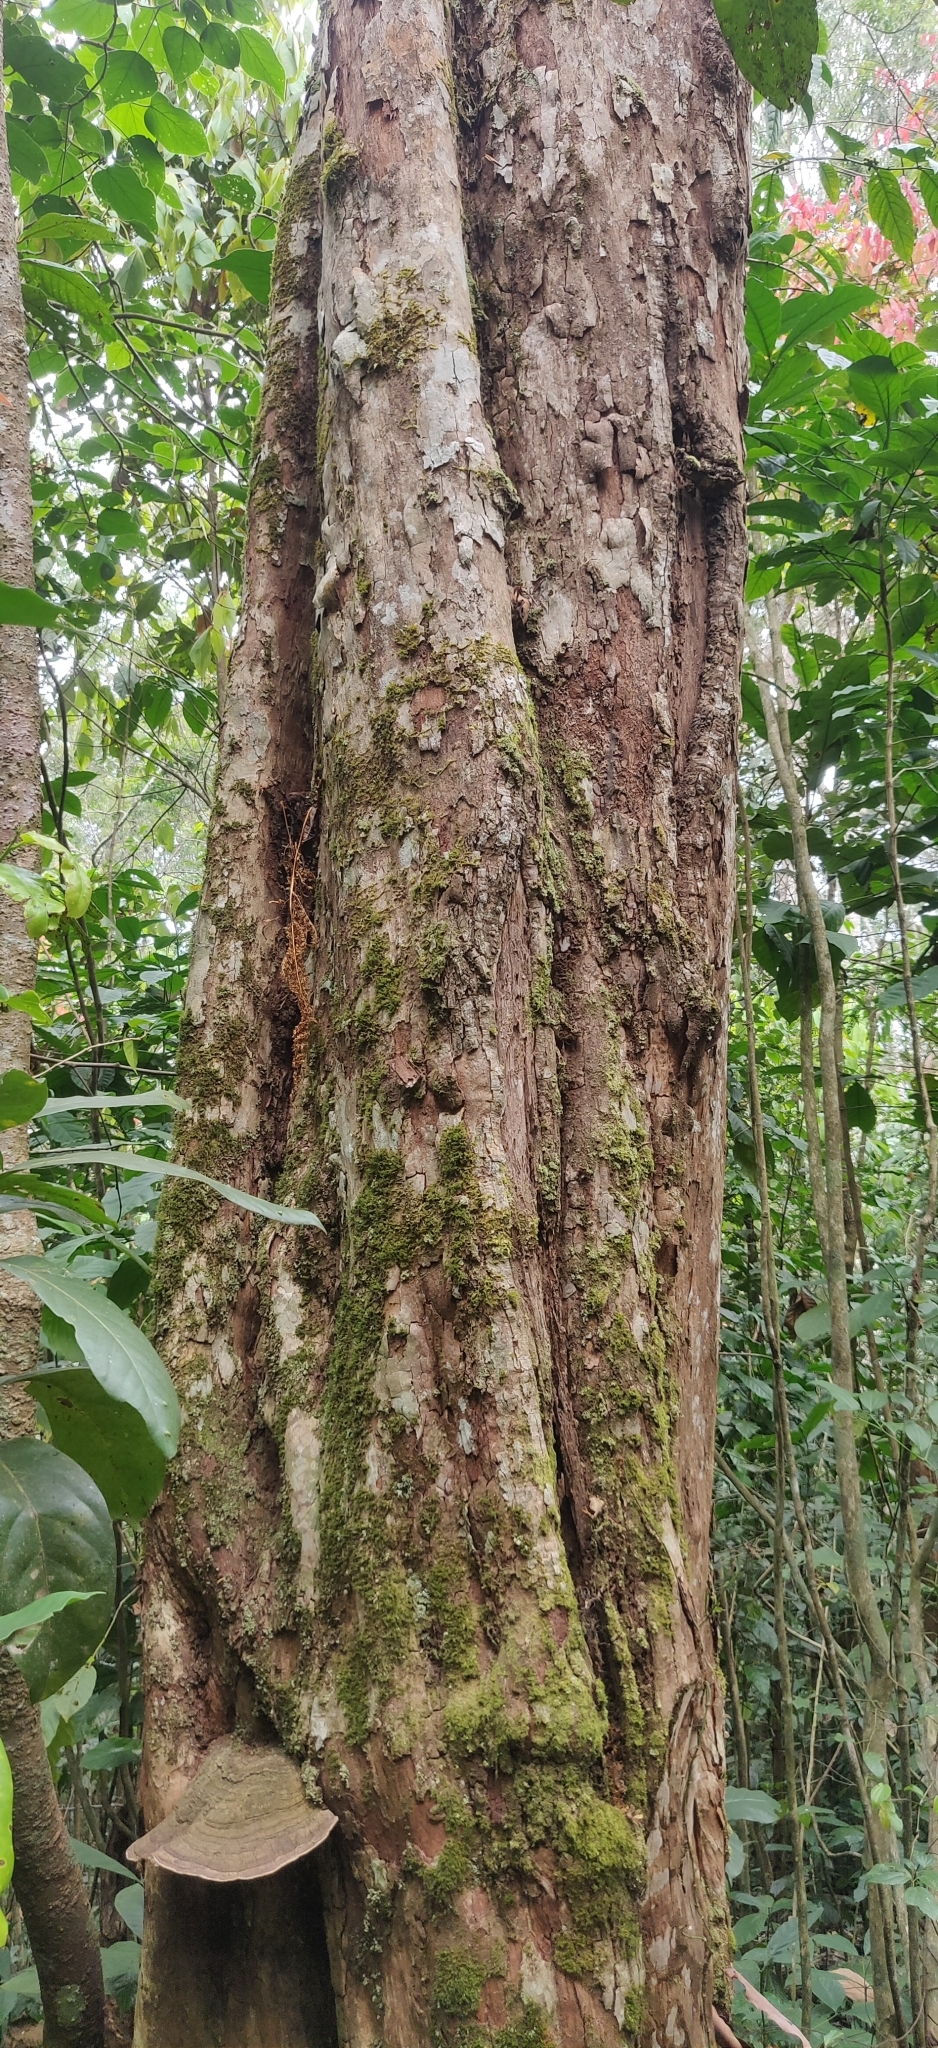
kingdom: Plantae
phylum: Tracheophyta
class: Magnoliopsida
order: Malpighiales
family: Calophyllaceae
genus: Mesua
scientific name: Mesua ferrea
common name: Mesua
